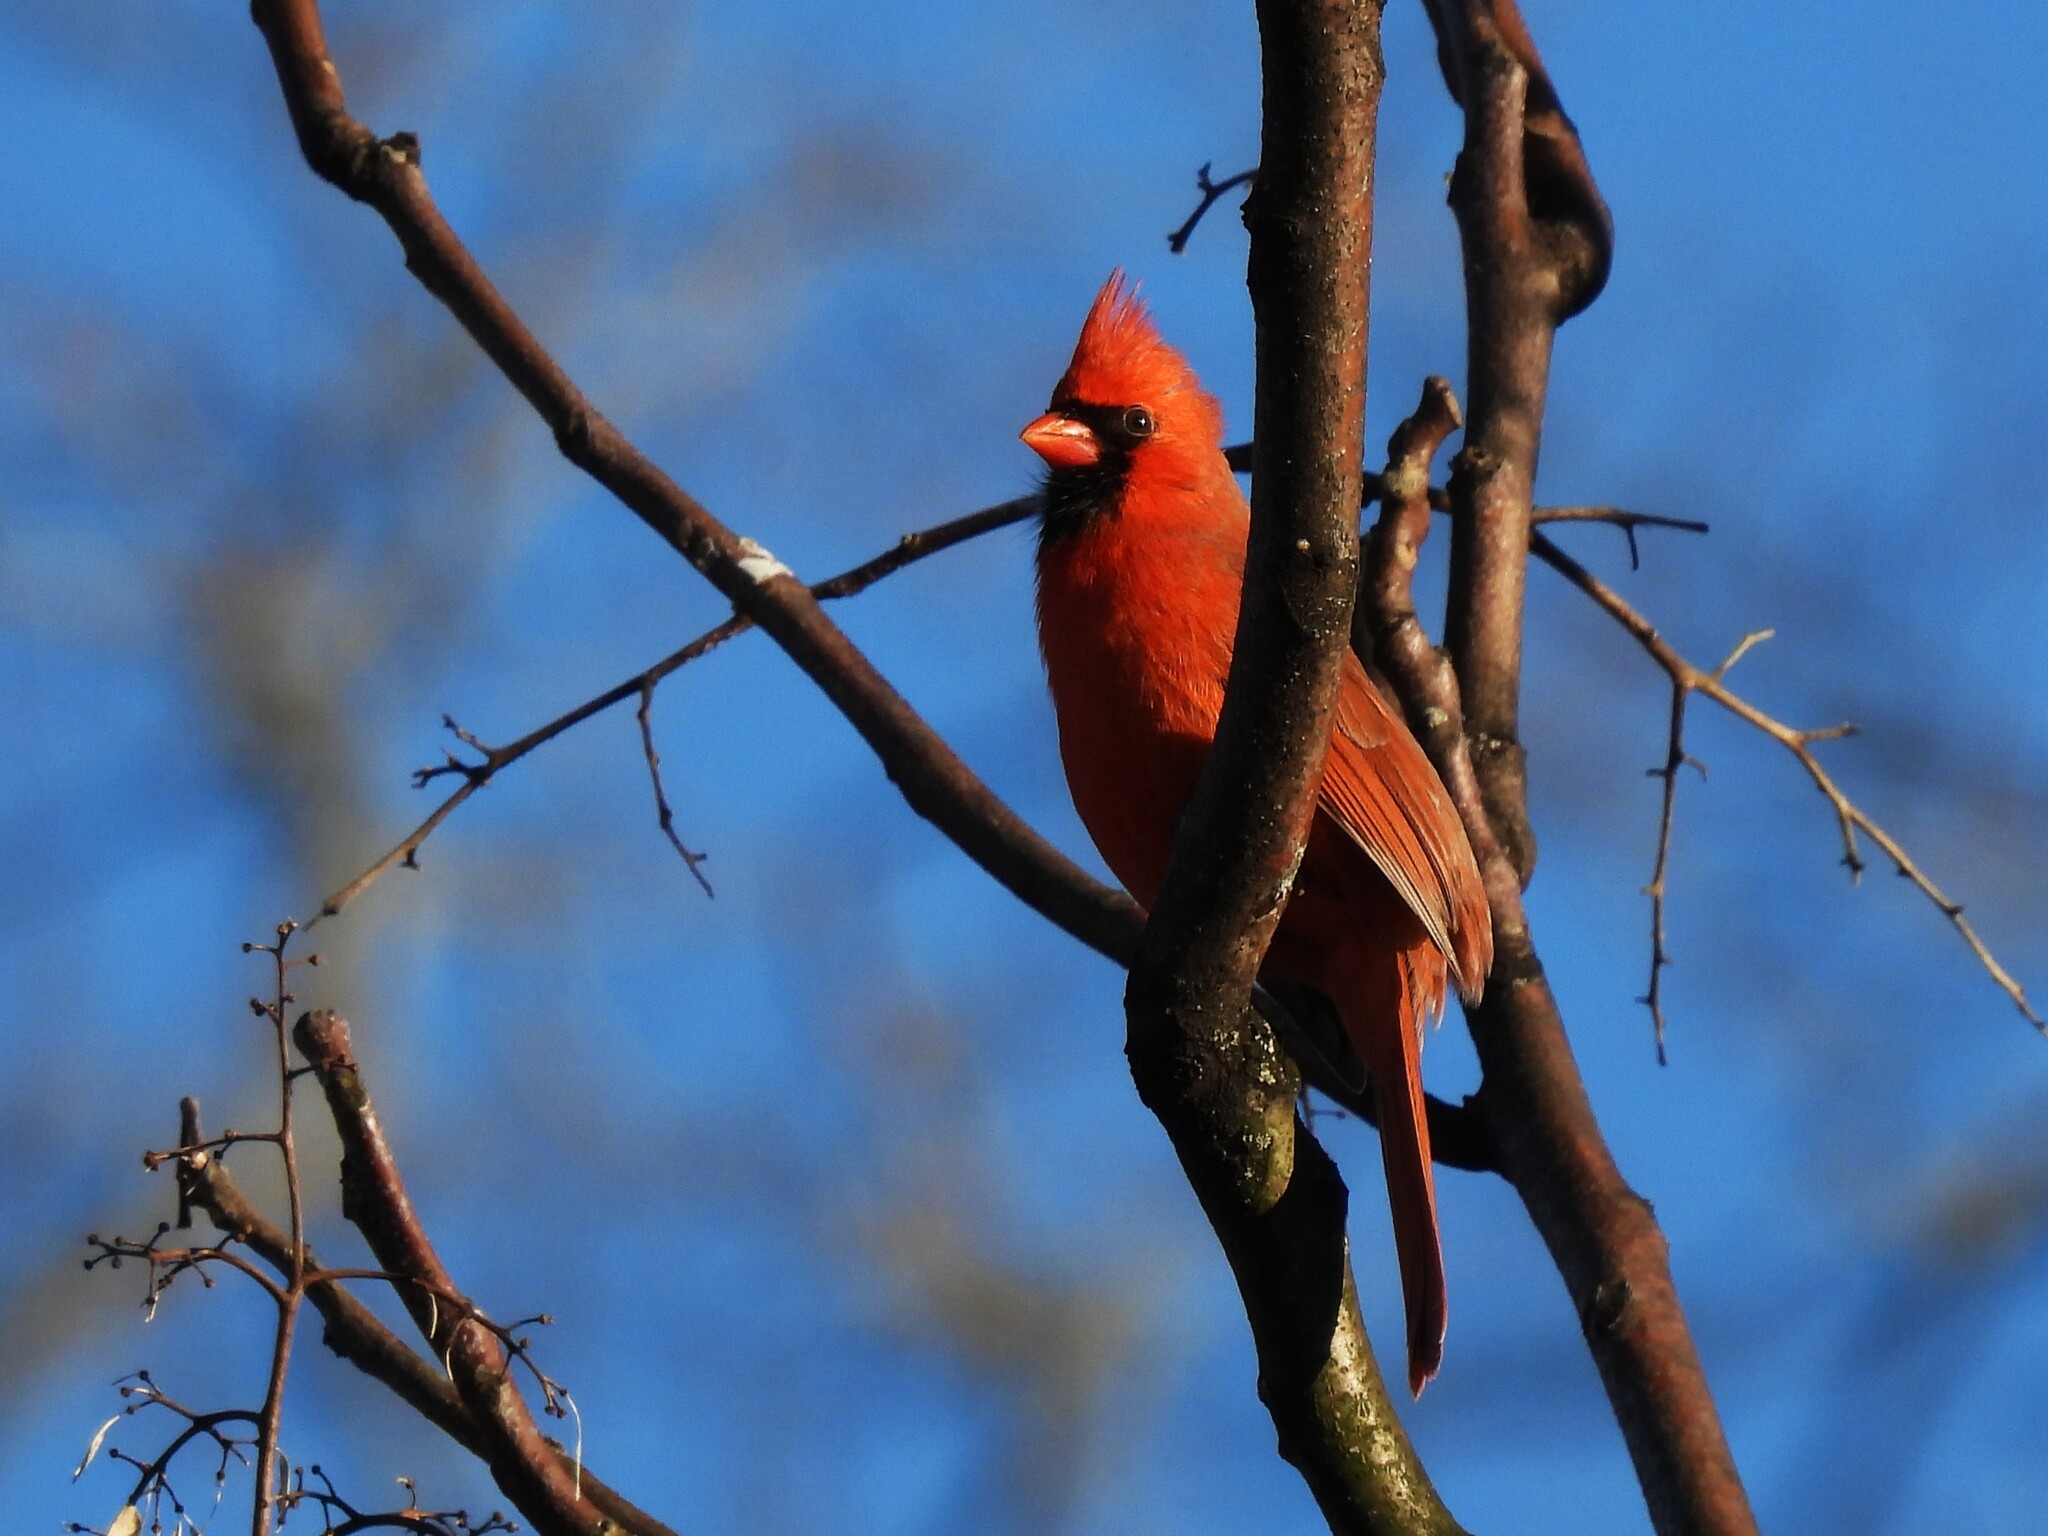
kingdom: Animalia
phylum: Chordata
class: Aves
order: Passeriformes
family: Cardinalidae
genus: Cardinalis
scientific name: Cardinalis cardinalis
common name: Northern cardinal
